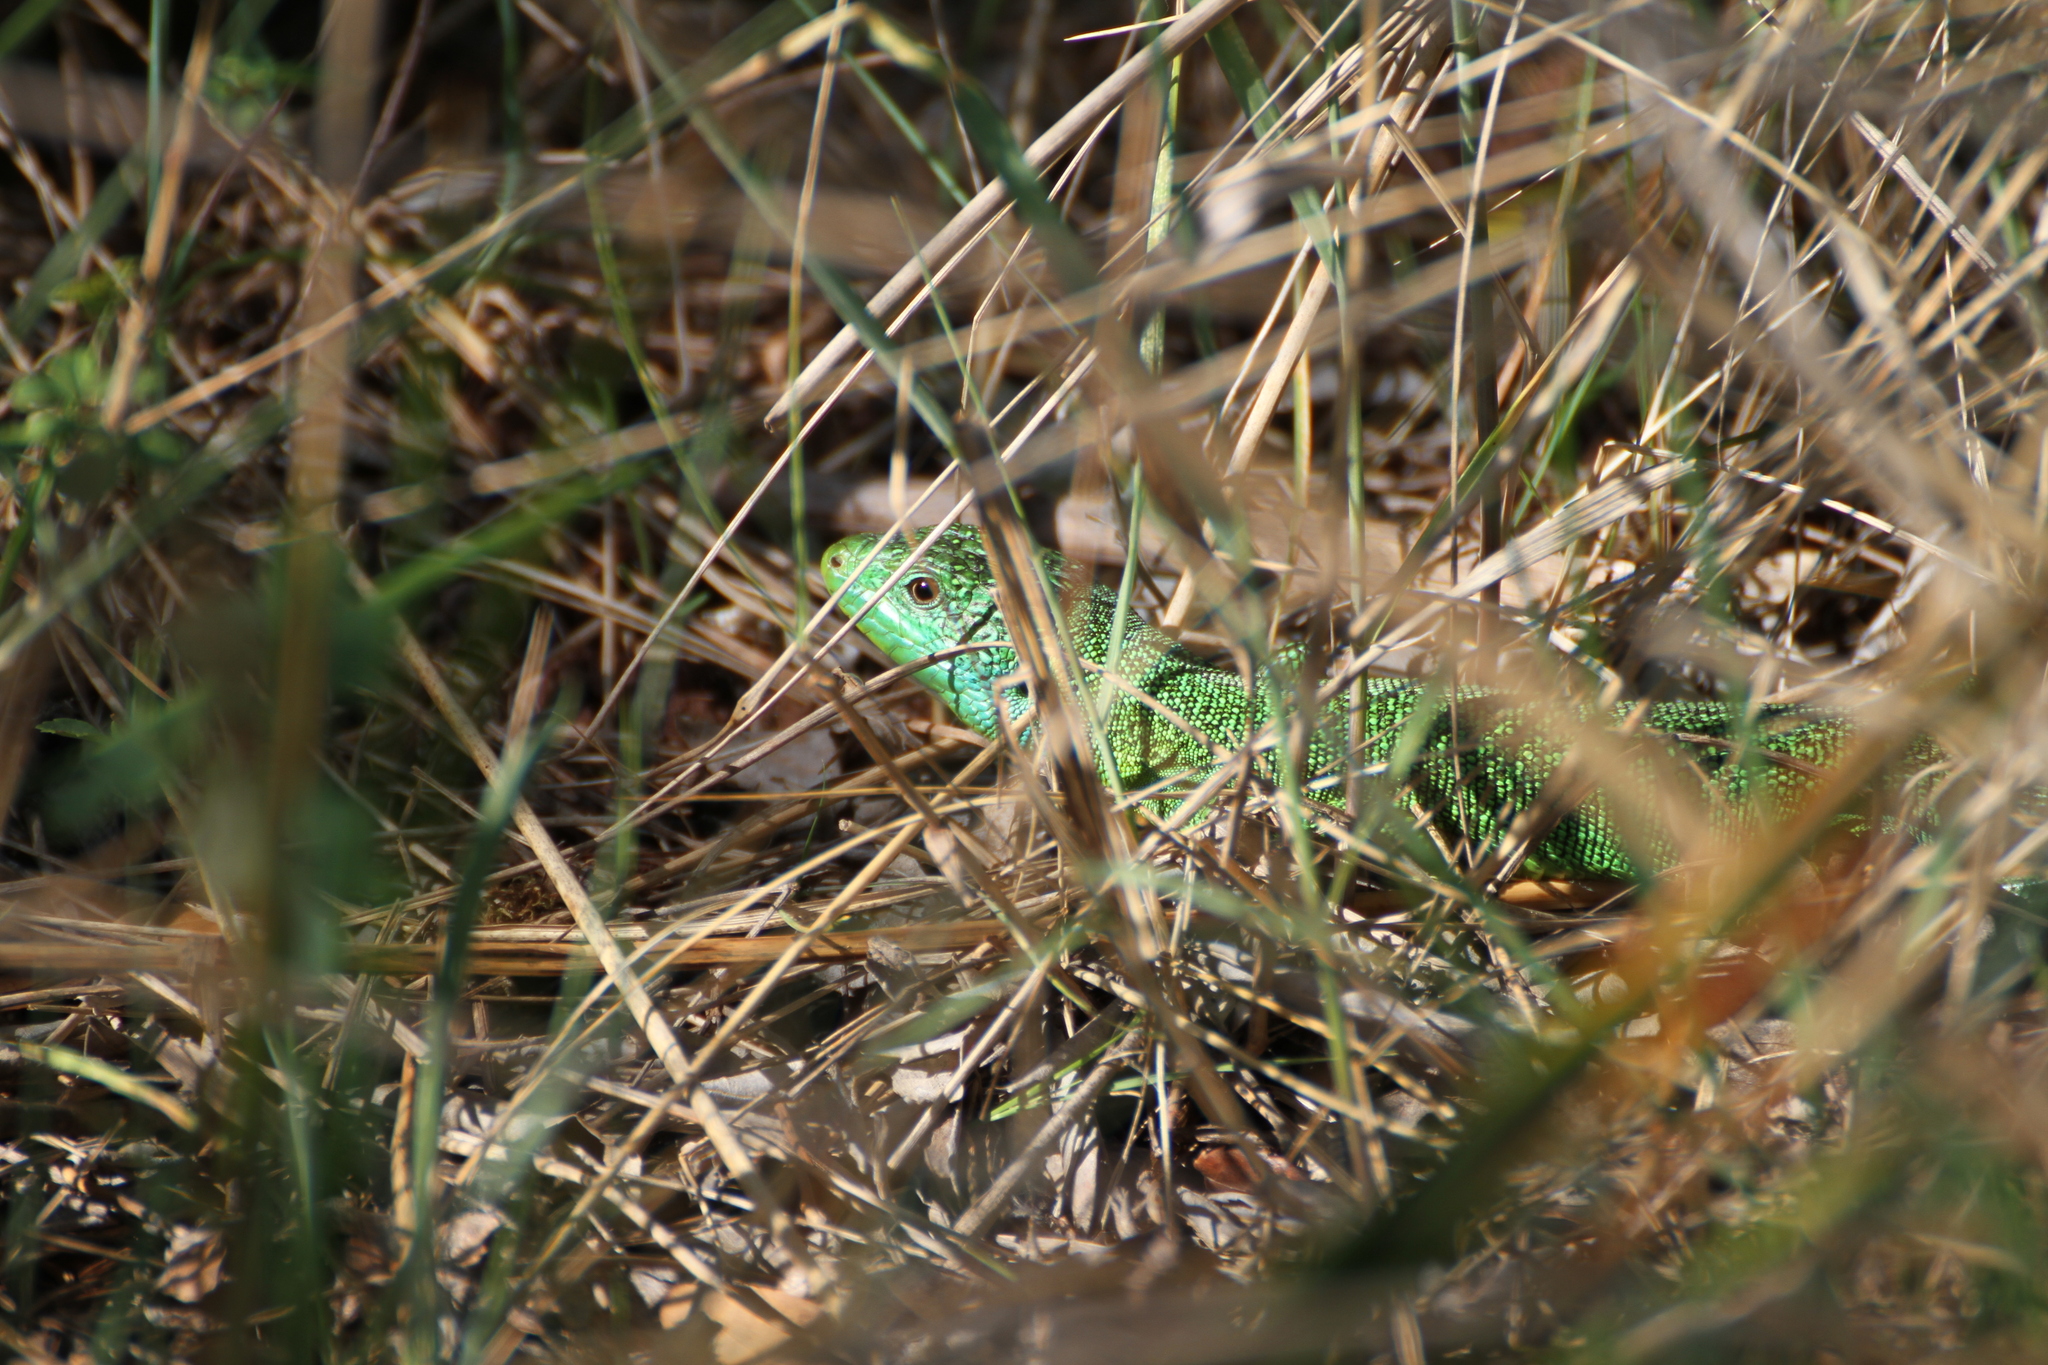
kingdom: Animalia
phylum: Chordata
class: Squamata
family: Lacertidae
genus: Lacerta
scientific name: Lacerta bilineata
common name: Western green lizard
